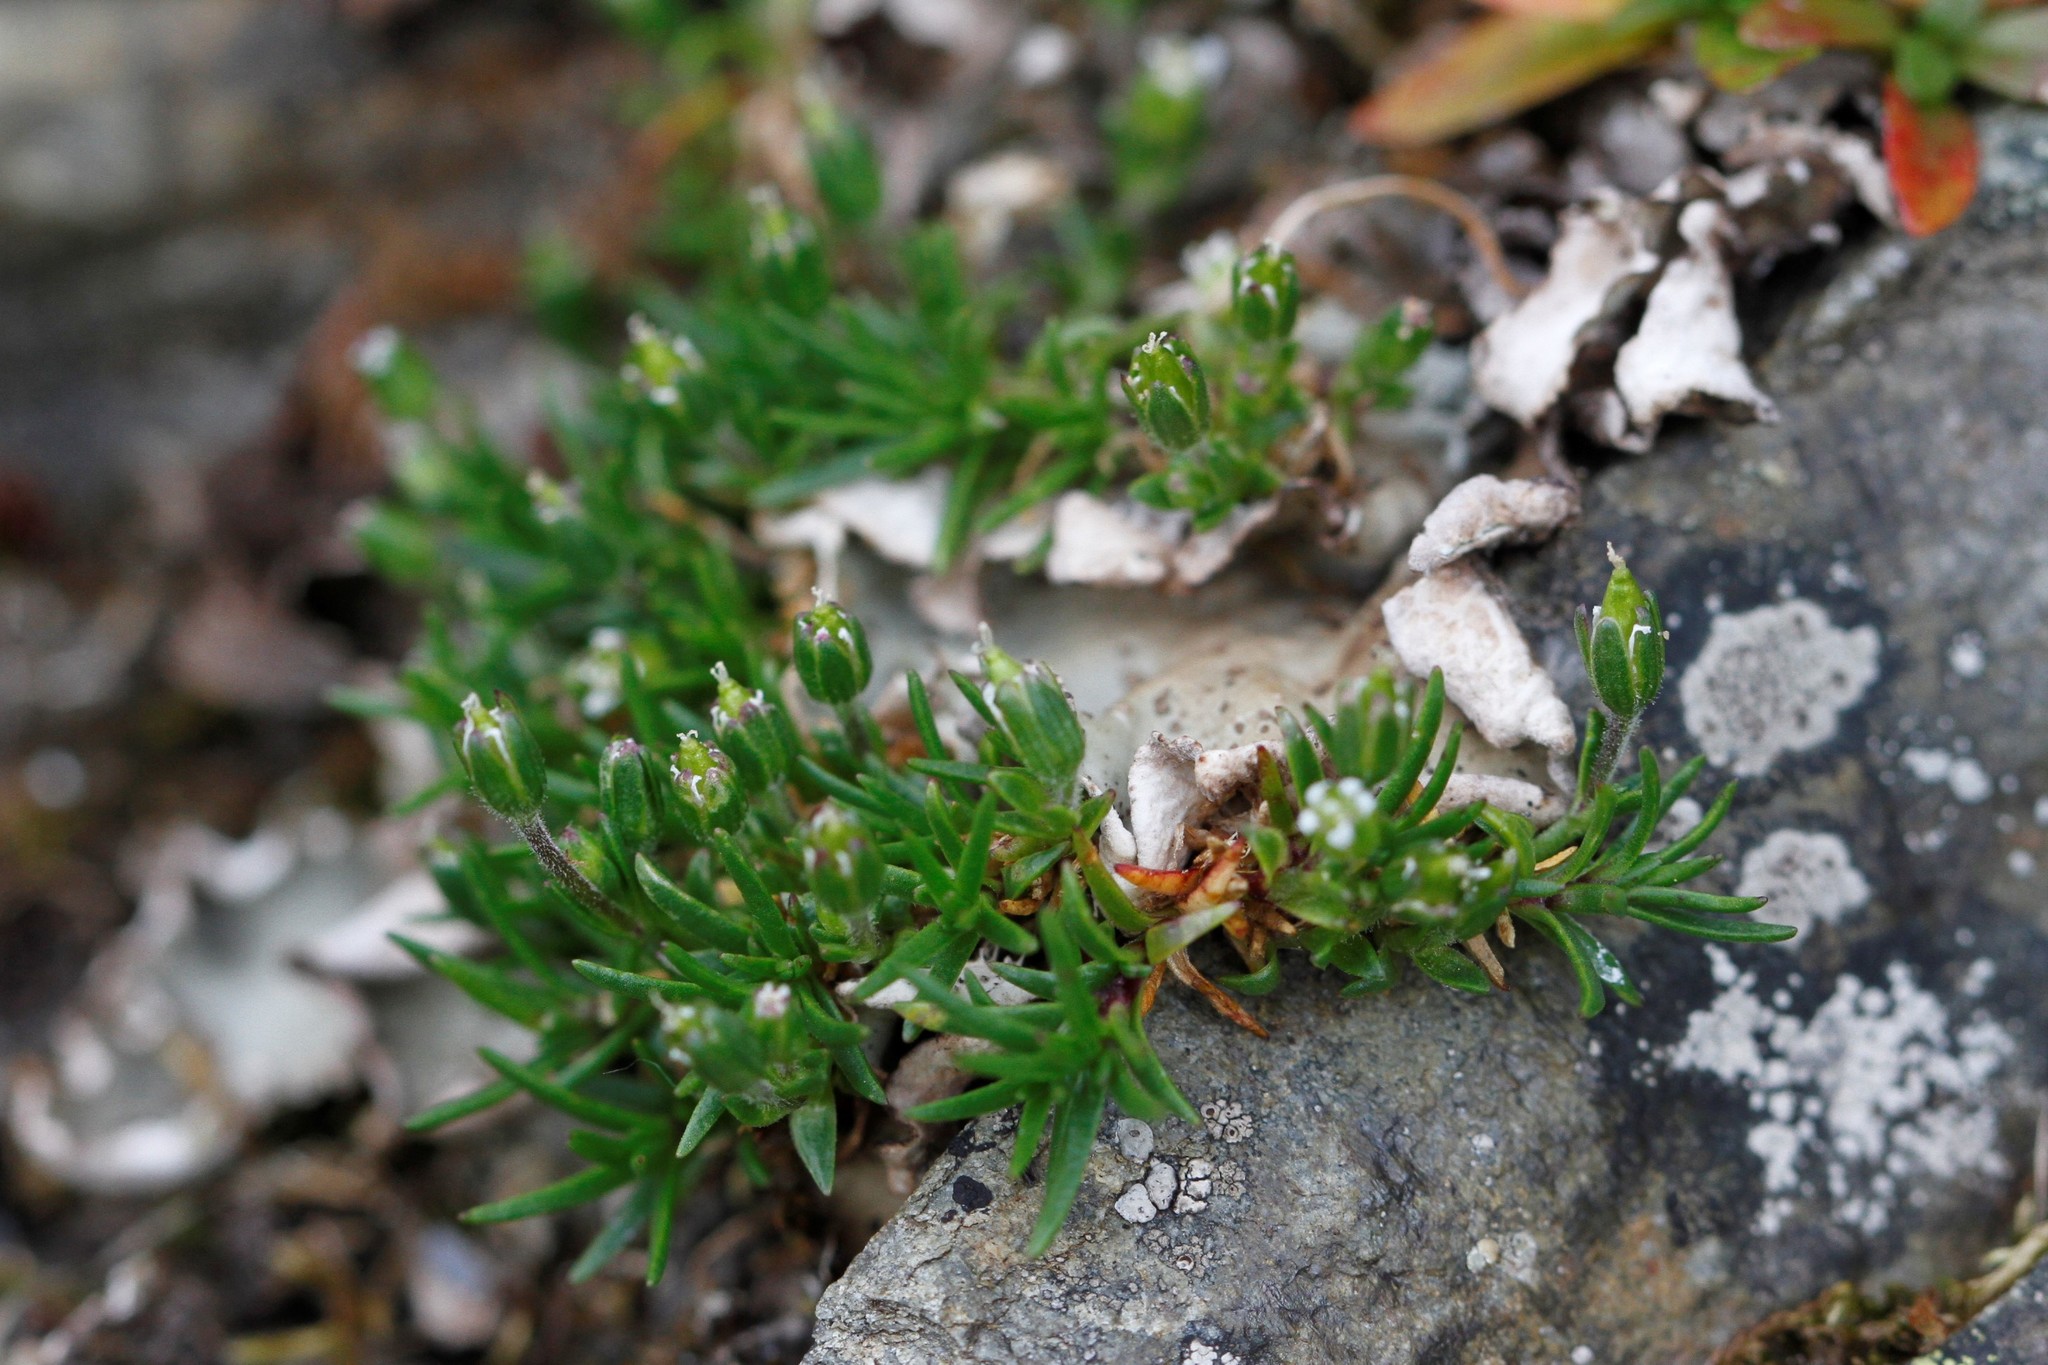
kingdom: Plantae
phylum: Tracheophyta
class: Magnoliopsida
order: Caryophyllales
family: Caryophyllaceae
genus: Cherleria
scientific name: Cherleria biflora
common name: Mountain sandwort
